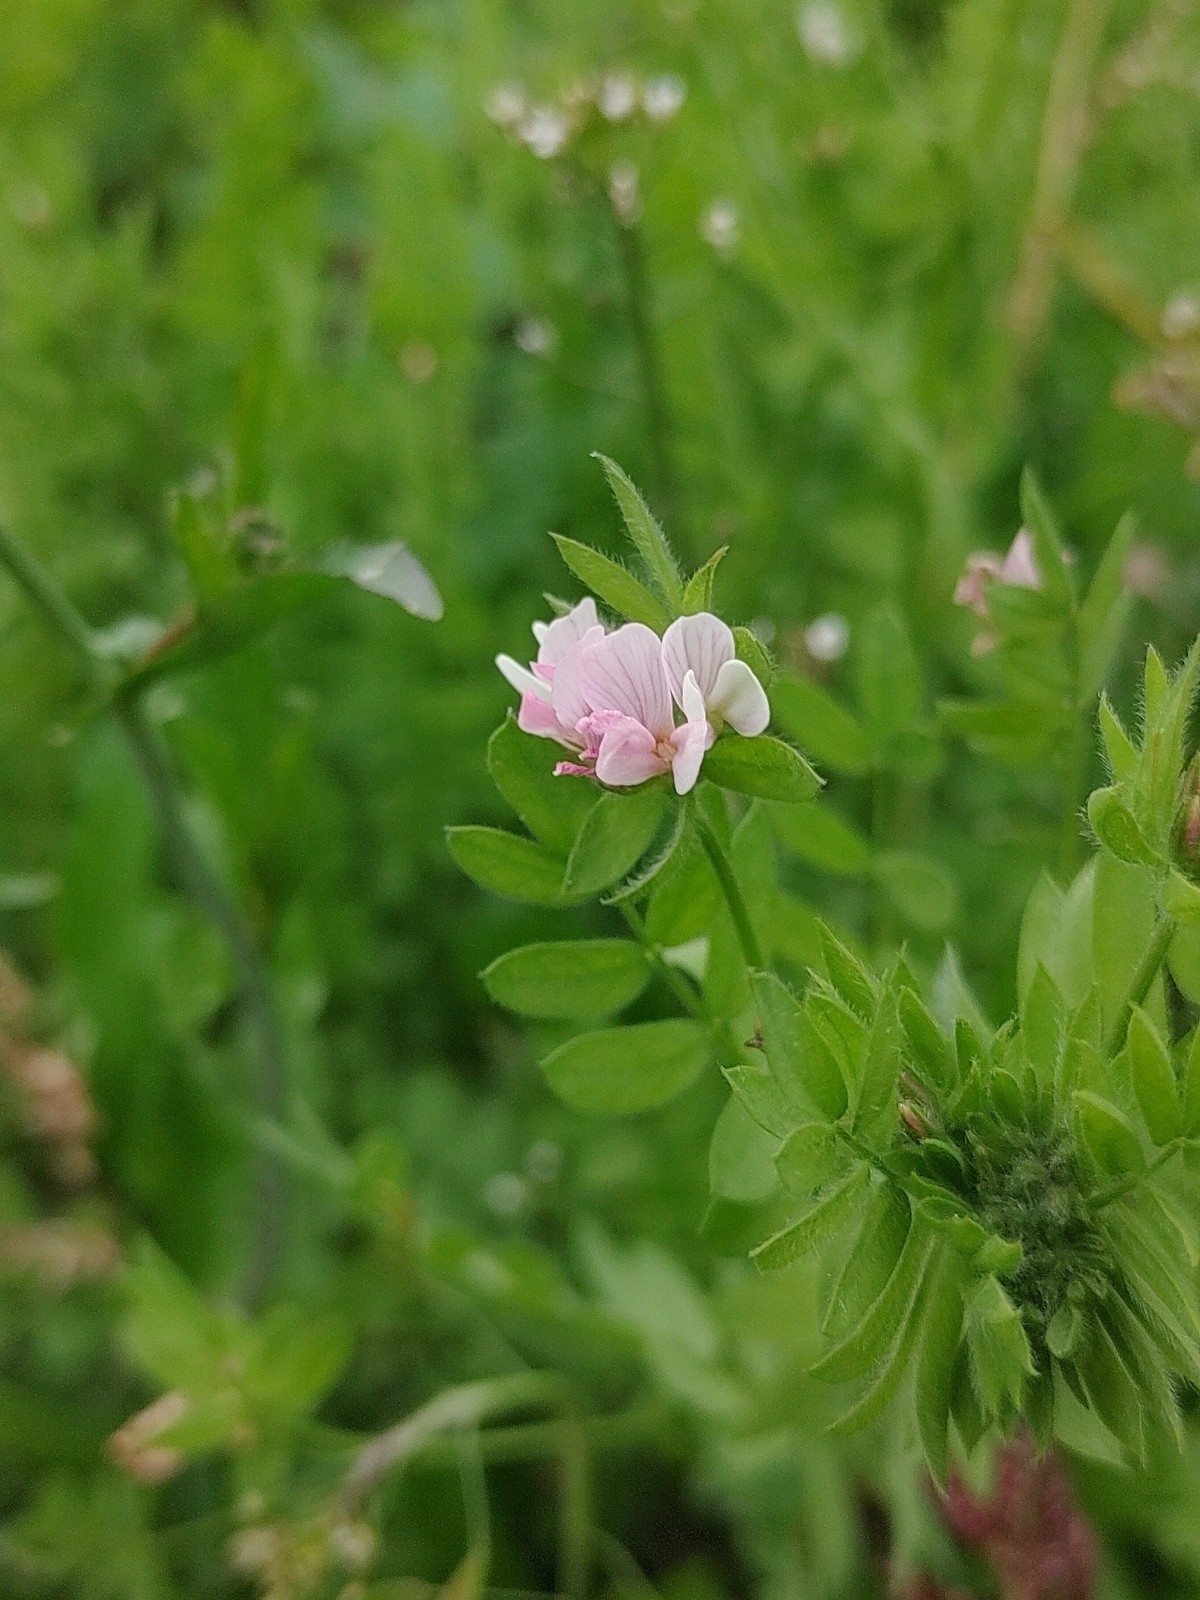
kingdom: Plantae
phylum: Tracheophyta
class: Magnoliopsida
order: Fabales
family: Fabaceae
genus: Ornithopus
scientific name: Ornithopus sativus
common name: Serradella
